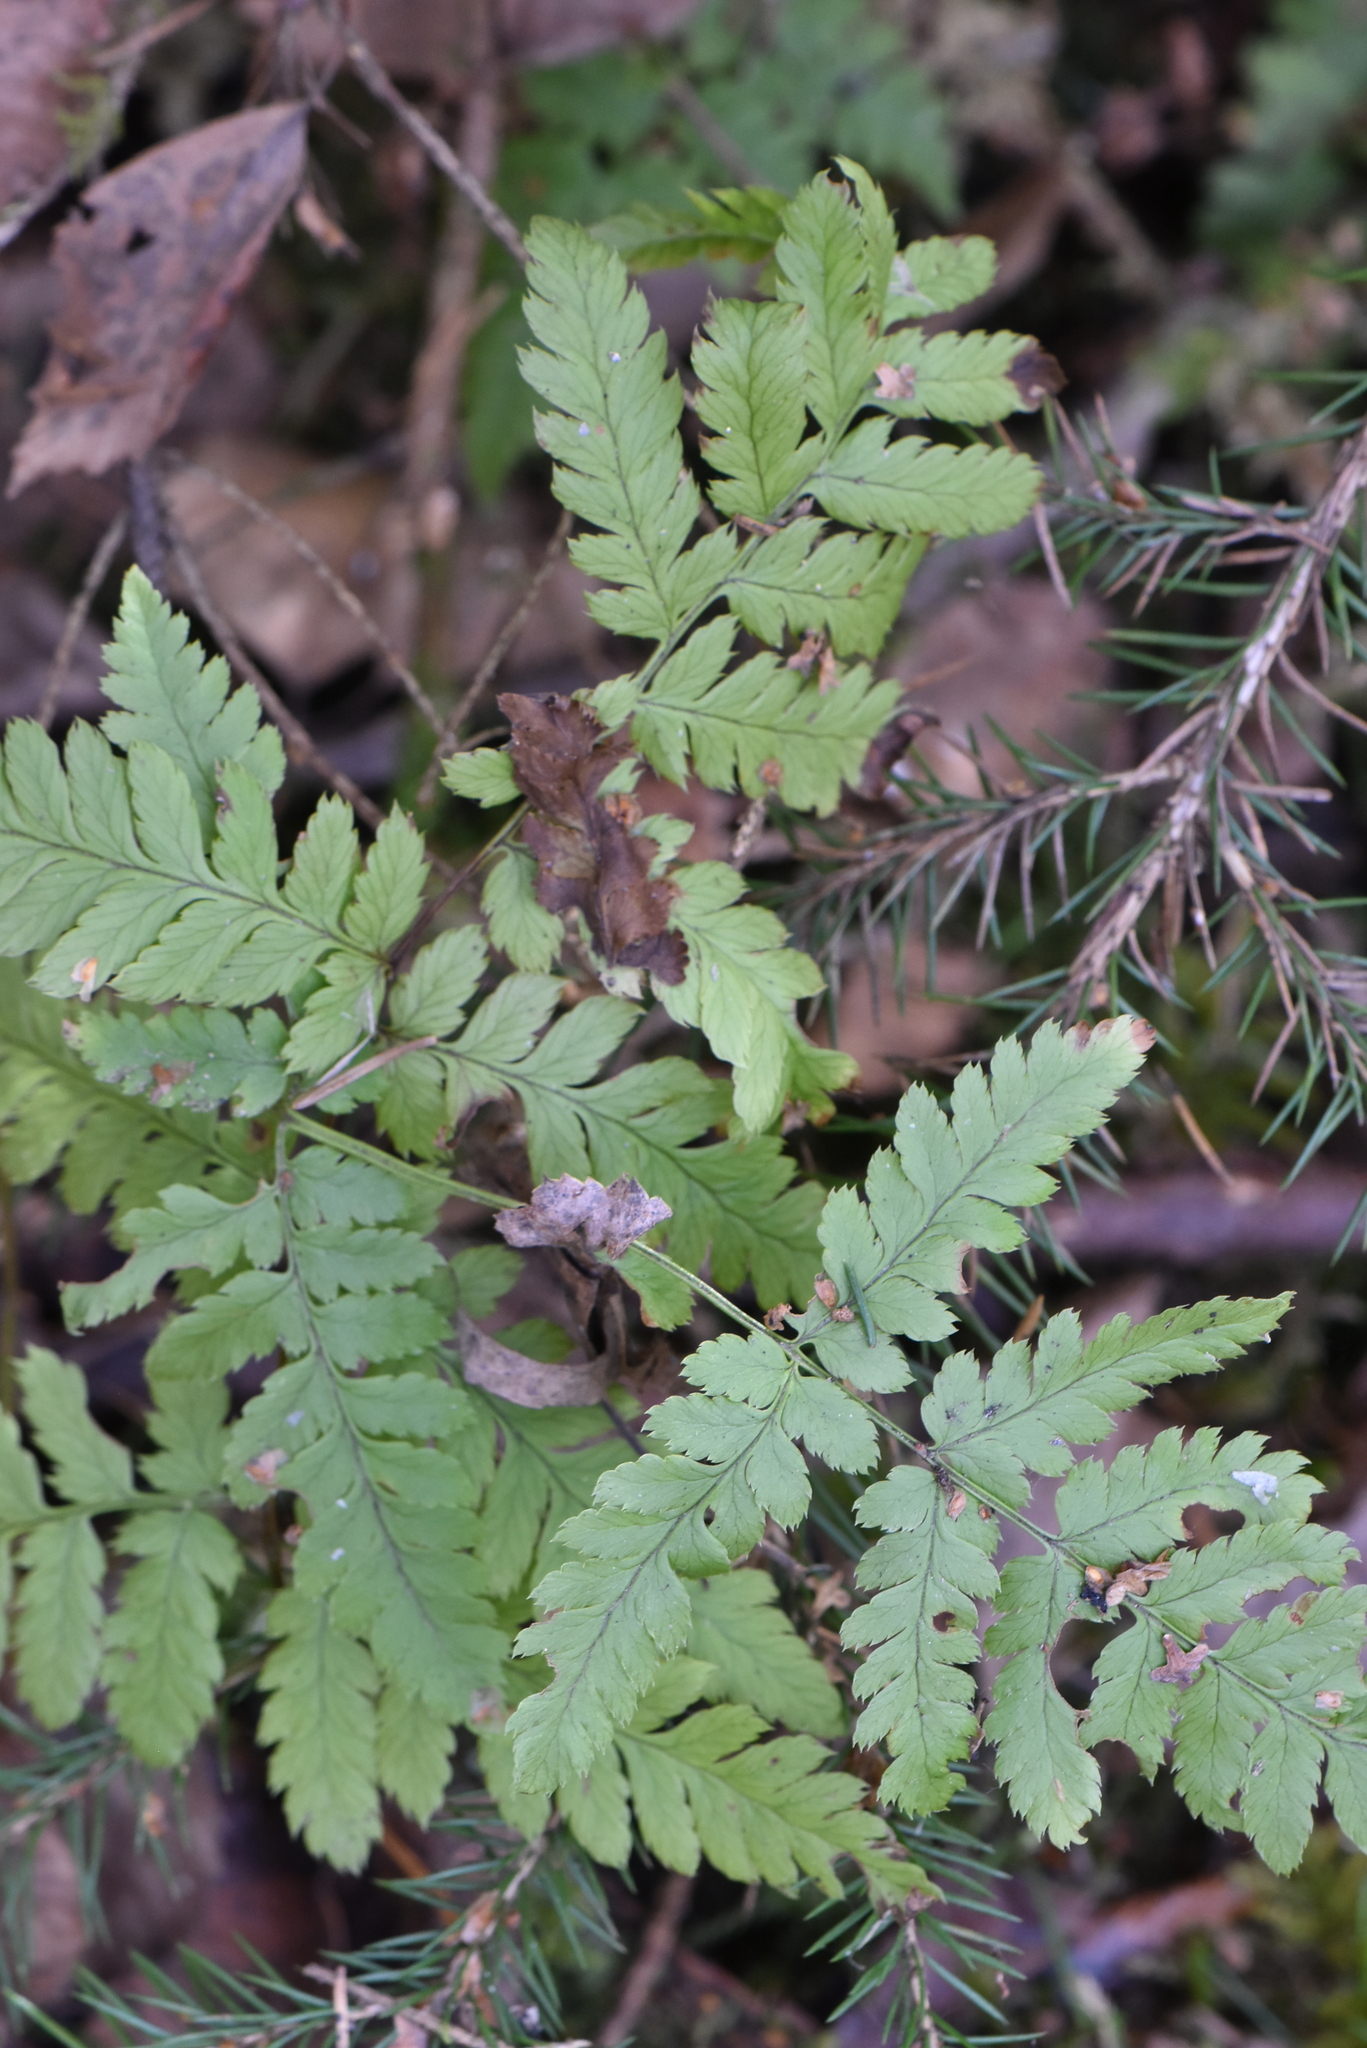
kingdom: Plantae
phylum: Tracheophyta
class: Polypodiopsida
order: Polypodiales
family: Dryopteridaceae
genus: Dryopteris
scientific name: Dryopteris carthusiana
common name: Narrow buckler-fern
